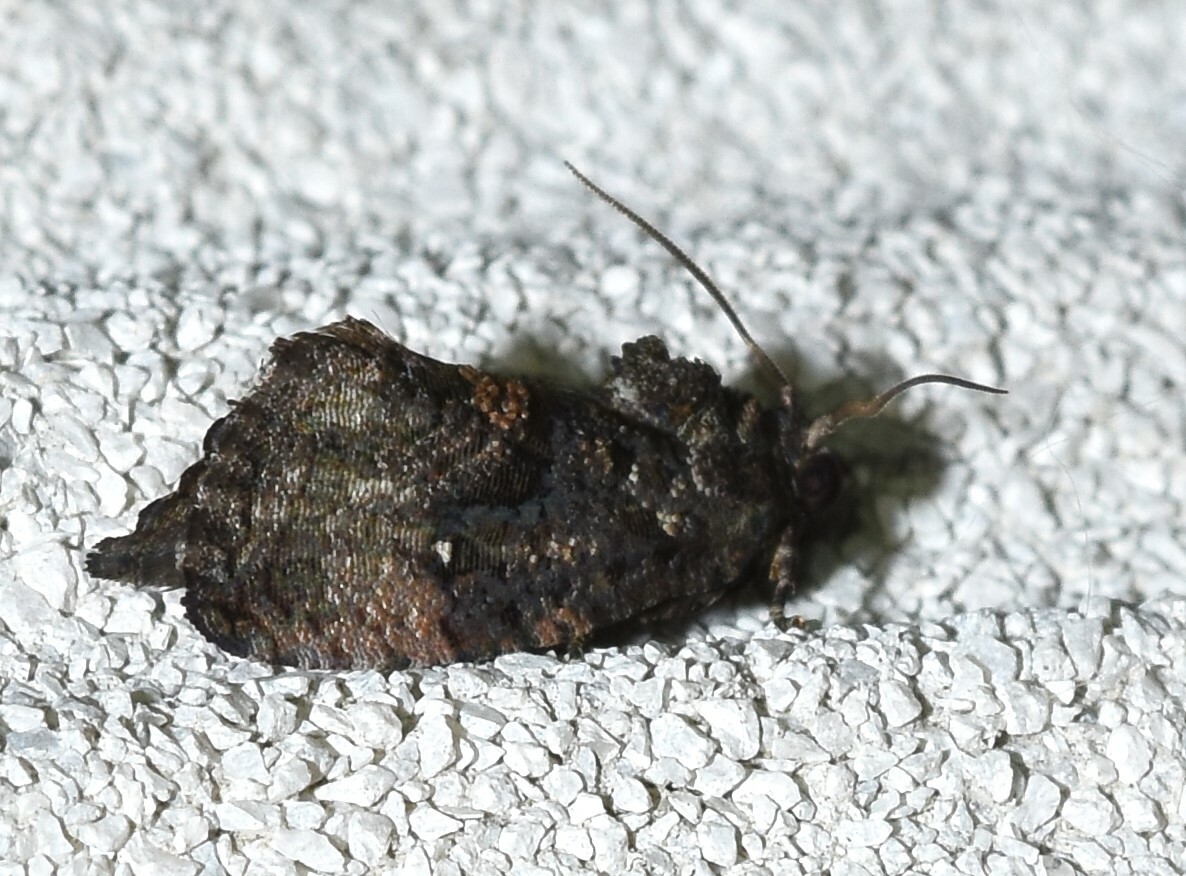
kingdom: Animalia
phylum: Arthropoda
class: Insecta
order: Lepidoptera
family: Tortricidae
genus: Gymnandrosoma
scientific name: Gymnandrosoma punctidiscanum
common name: Dotted ecdytolopha moth
